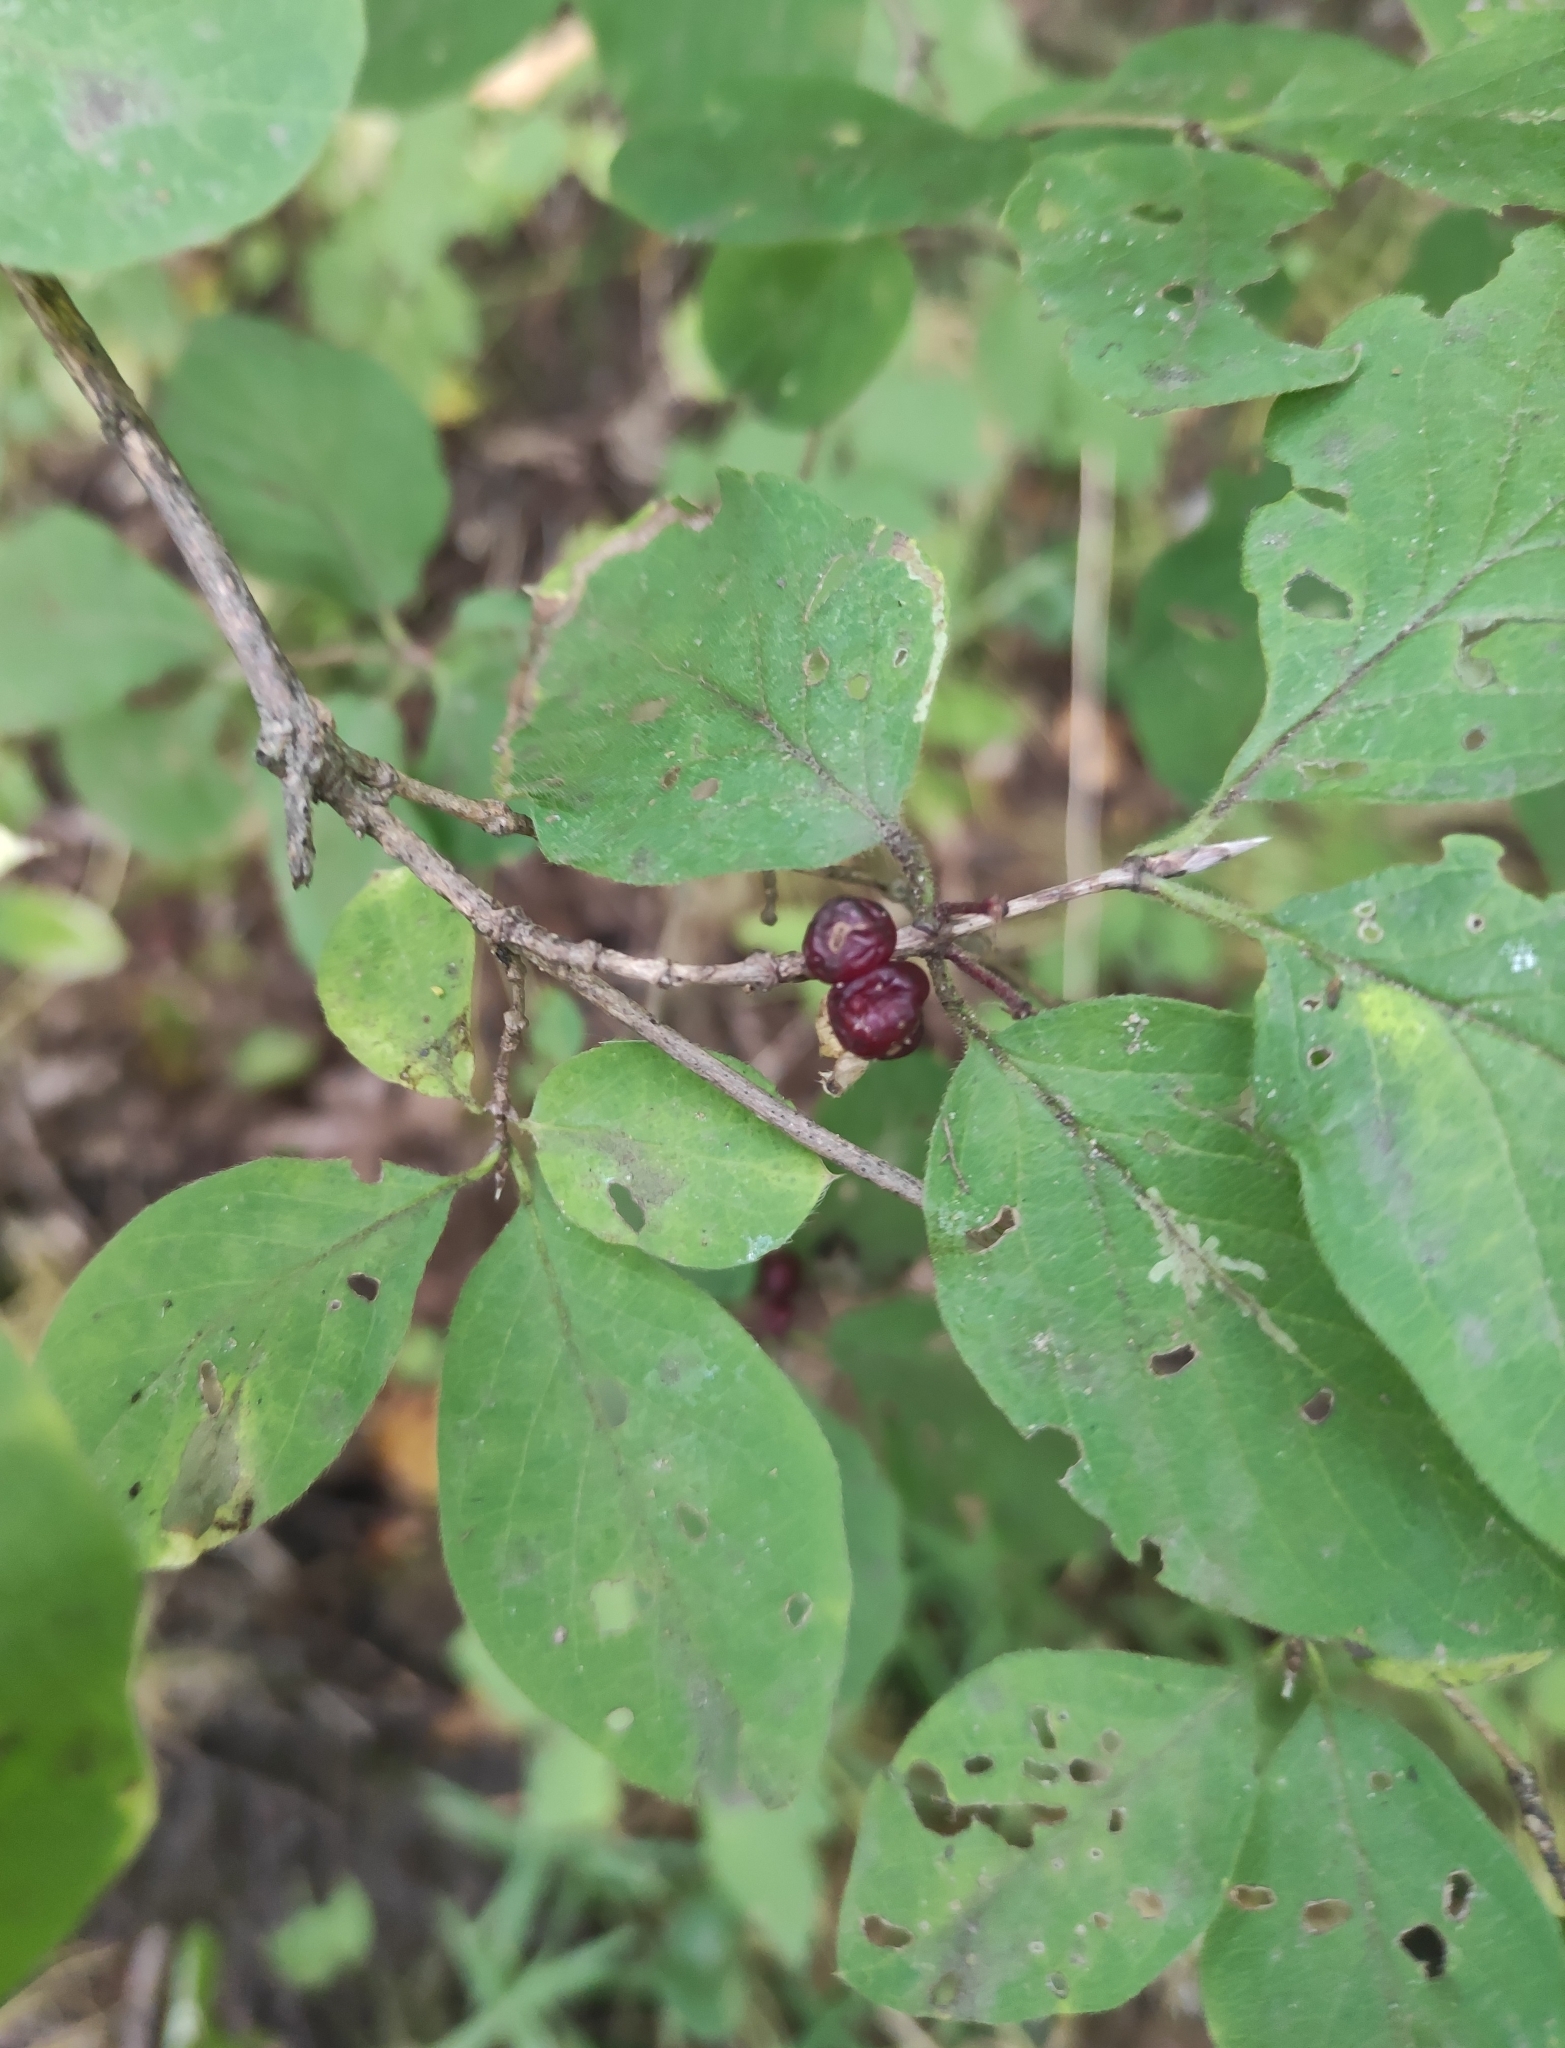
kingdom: Plantae
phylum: Tracheophyta
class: Magnoliopsida
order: Dipsacales
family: Caprifoliaceae
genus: Lonicera
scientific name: Lonicera xylosteum
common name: Fly honeysuckle
